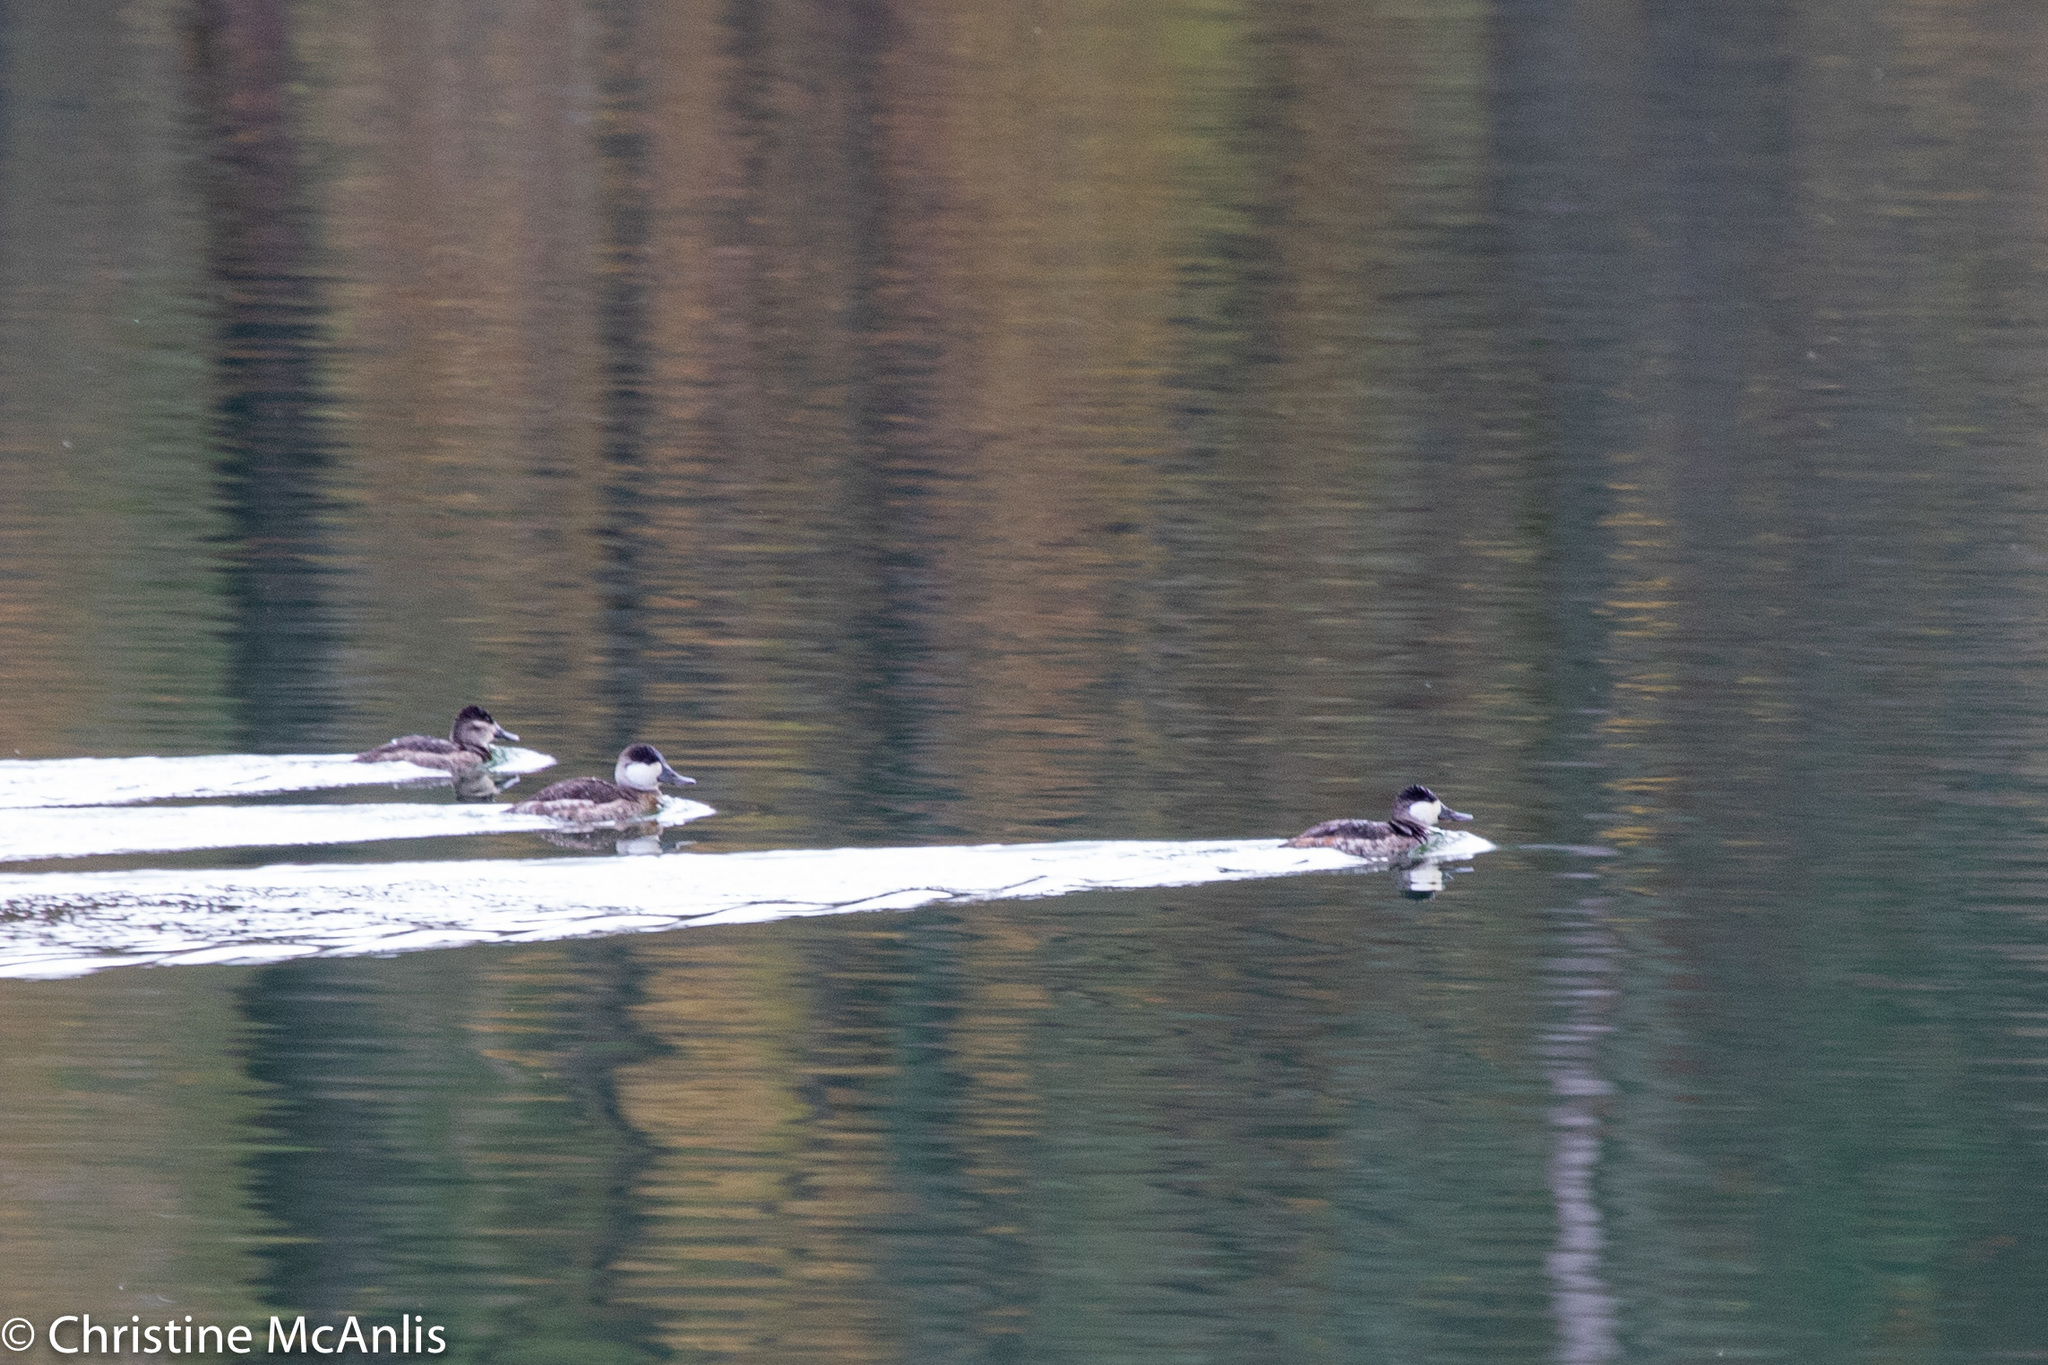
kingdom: Animalia
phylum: Chordata
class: Aves
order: Anseriformes
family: Anatidae
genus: Oxyura
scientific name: Oxyura jamaicensis
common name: Ruddy duck
